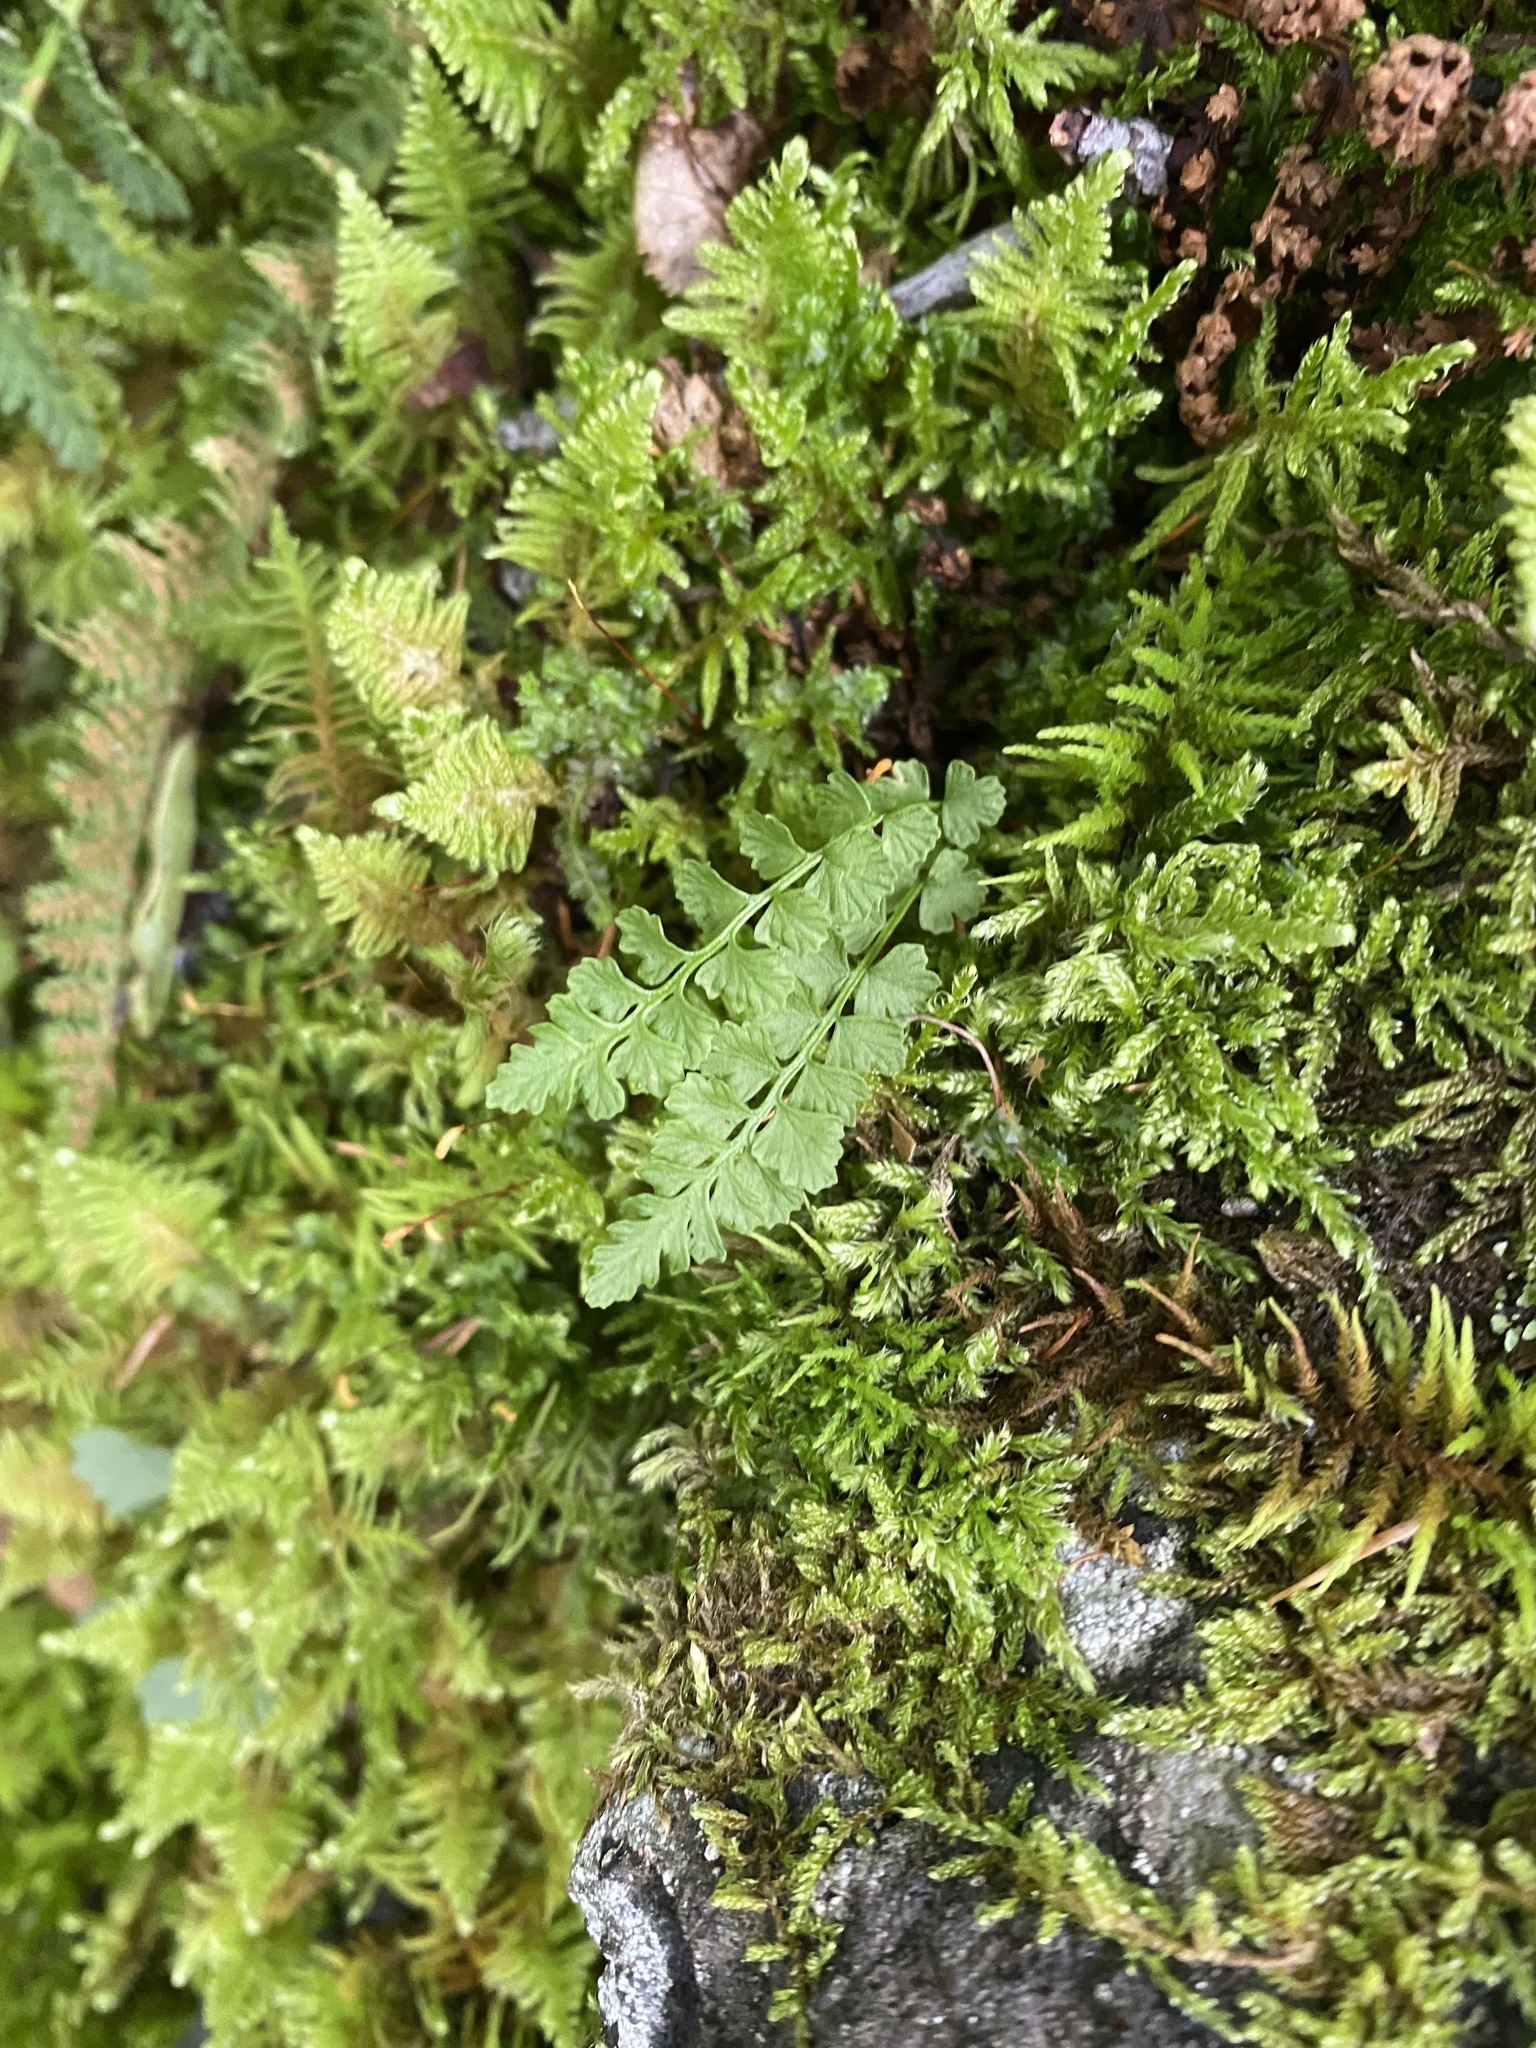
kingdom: Plantae
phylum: Tracheophyta
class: Polypodiopsida
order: Polypodiales
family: Woodsiaceae
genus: Woodsia
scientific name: Woodsia glabella
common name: Smooth woodsia
